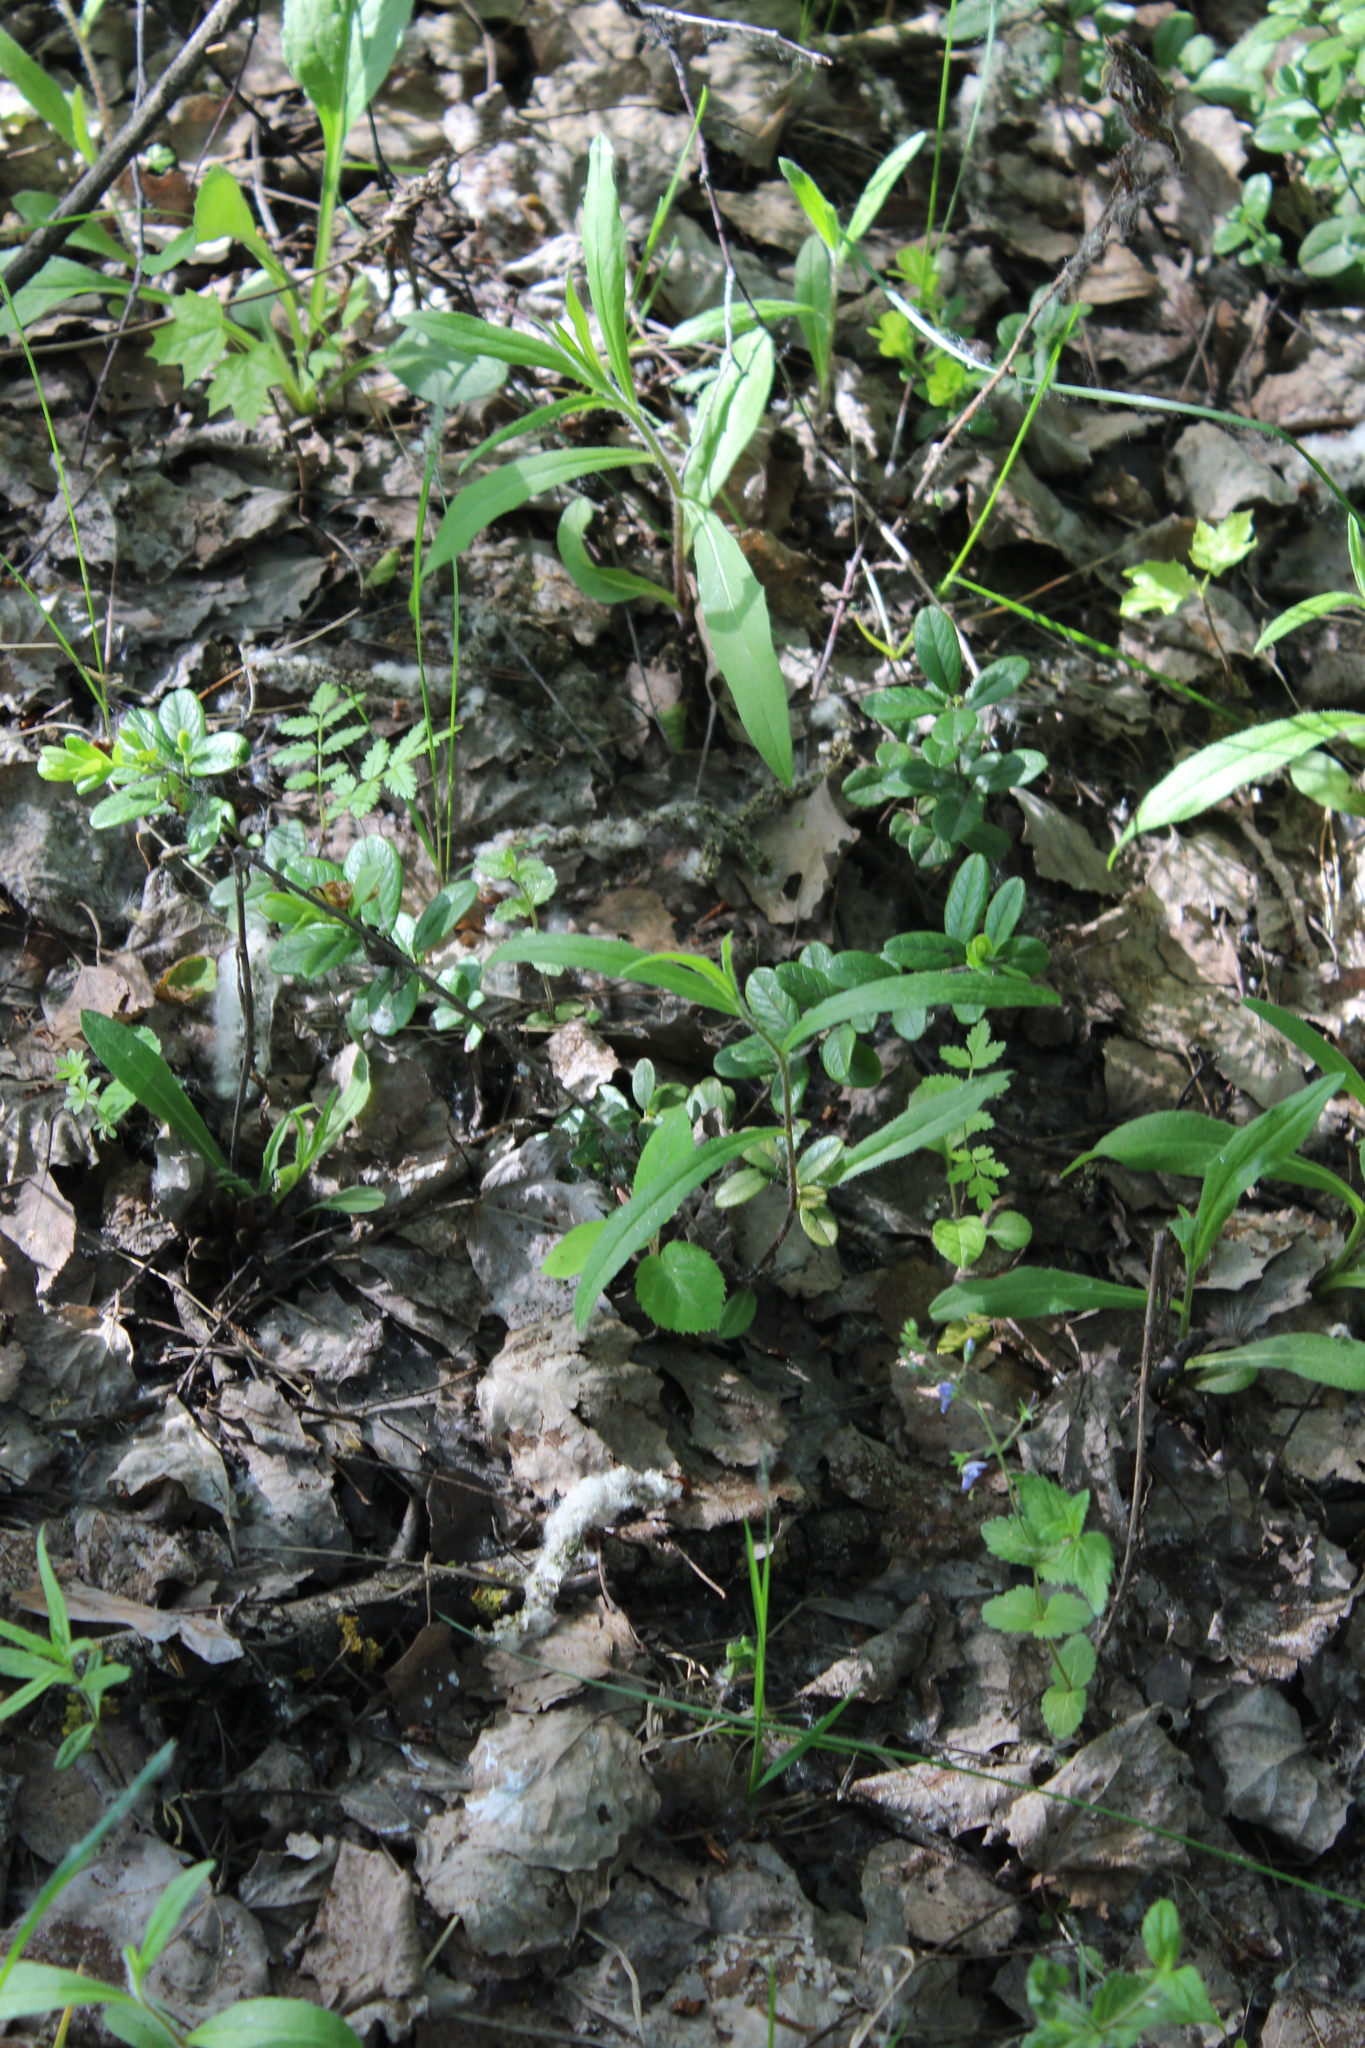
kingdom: Plantae
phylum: Tracheophyta
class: Magnoliopsida
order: Ericales
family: Ericaceae
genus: Vaccinium
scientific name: Vaccinium vitis-idaea
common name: Cowberry
